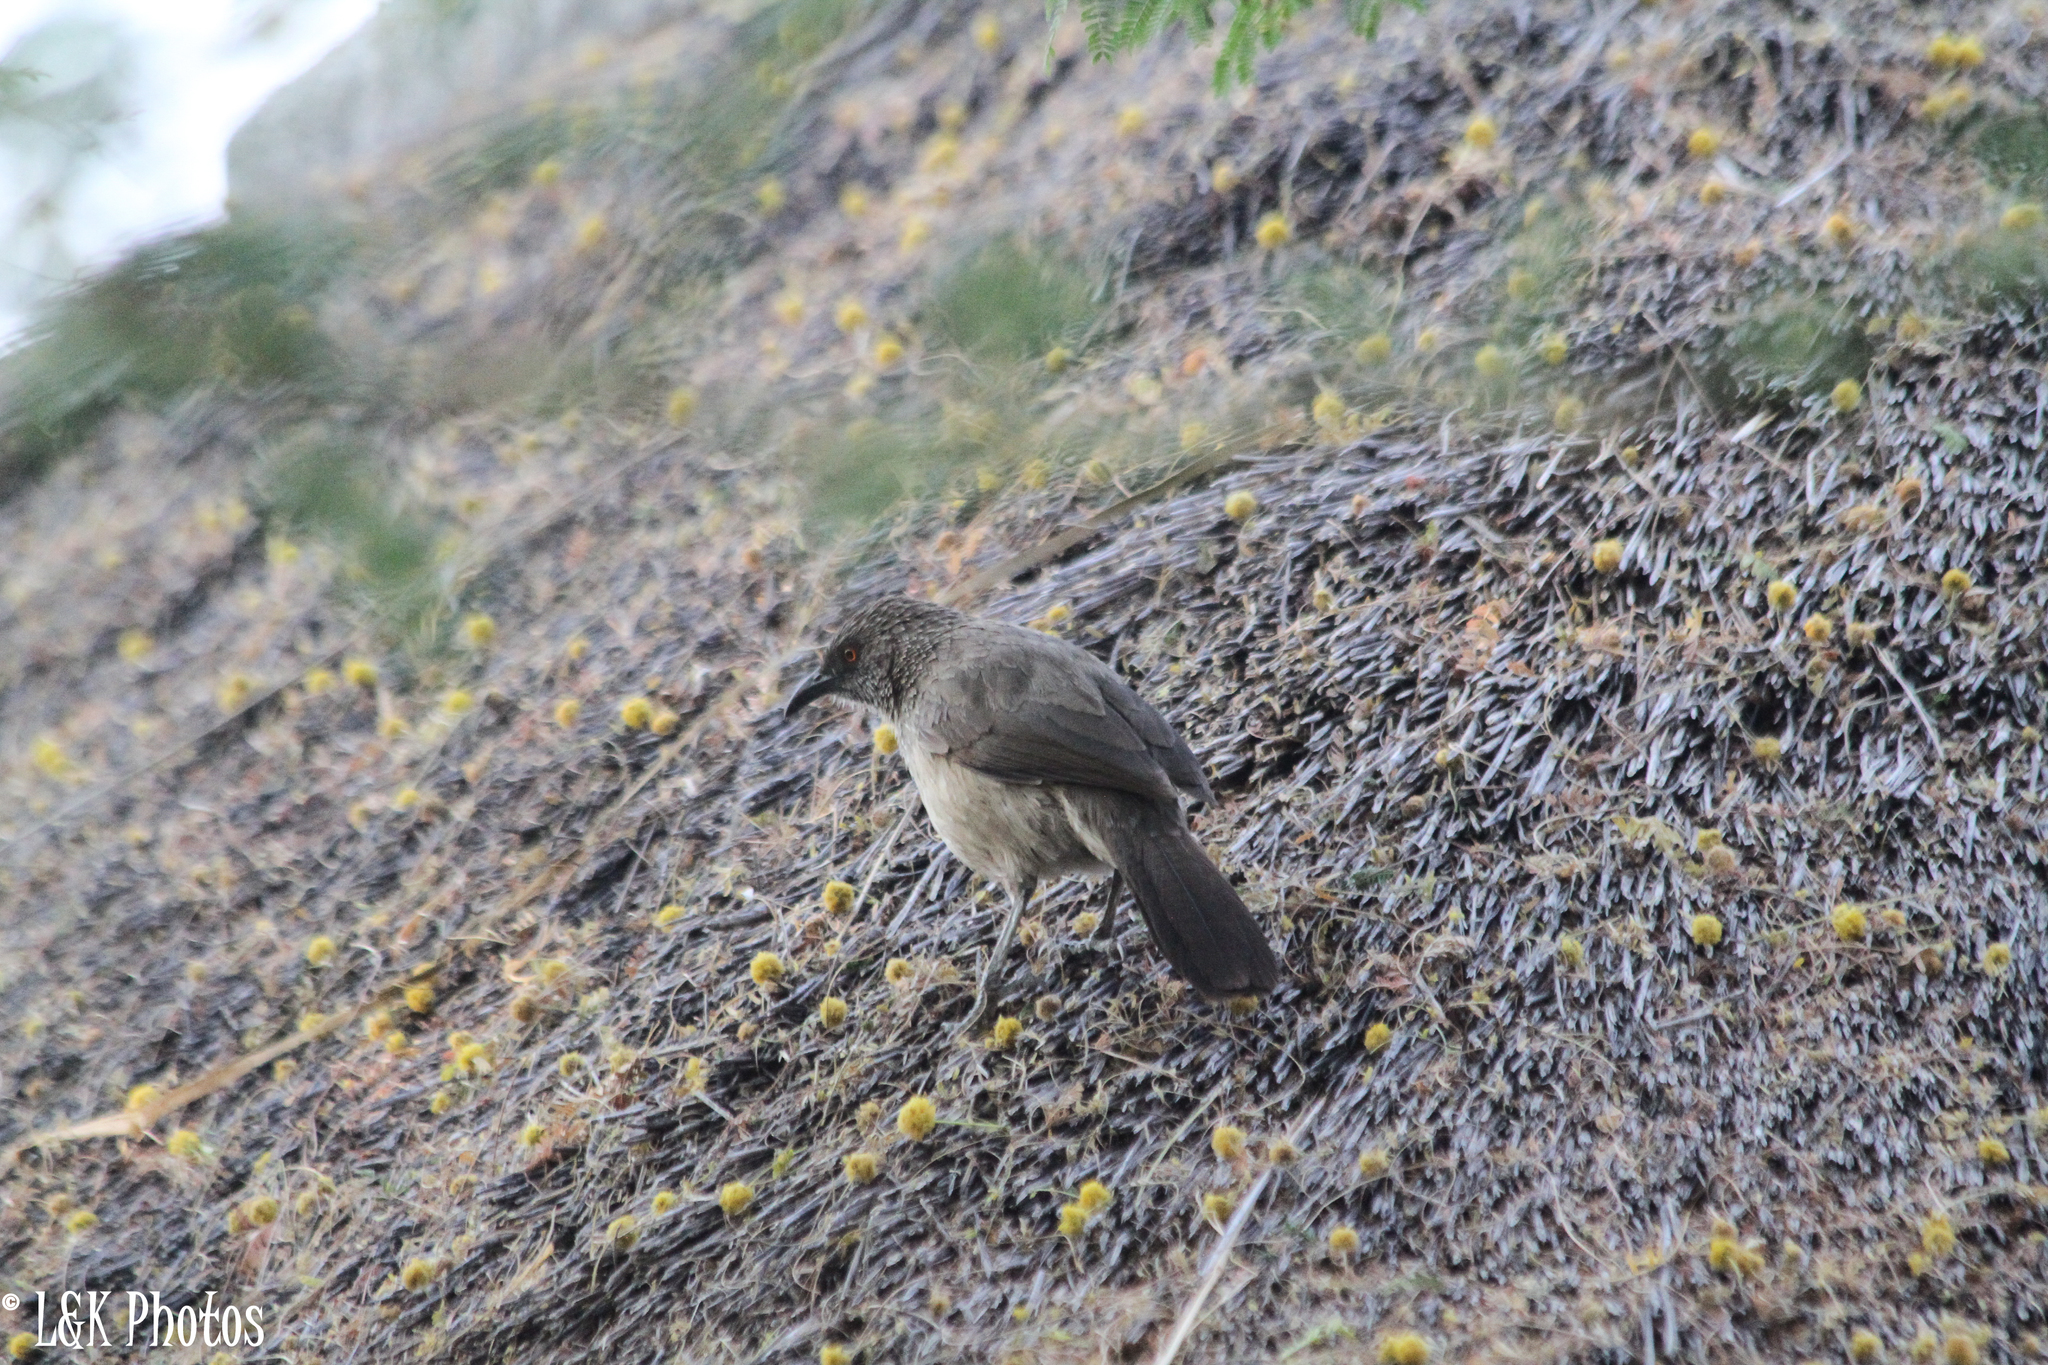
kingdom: Animalia
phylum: Chordata
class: Aves
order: Passeriformes
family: Leiothrichidae
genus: Turdoides
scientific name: Turdoides jardineii
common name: Arrow-marked babbler
